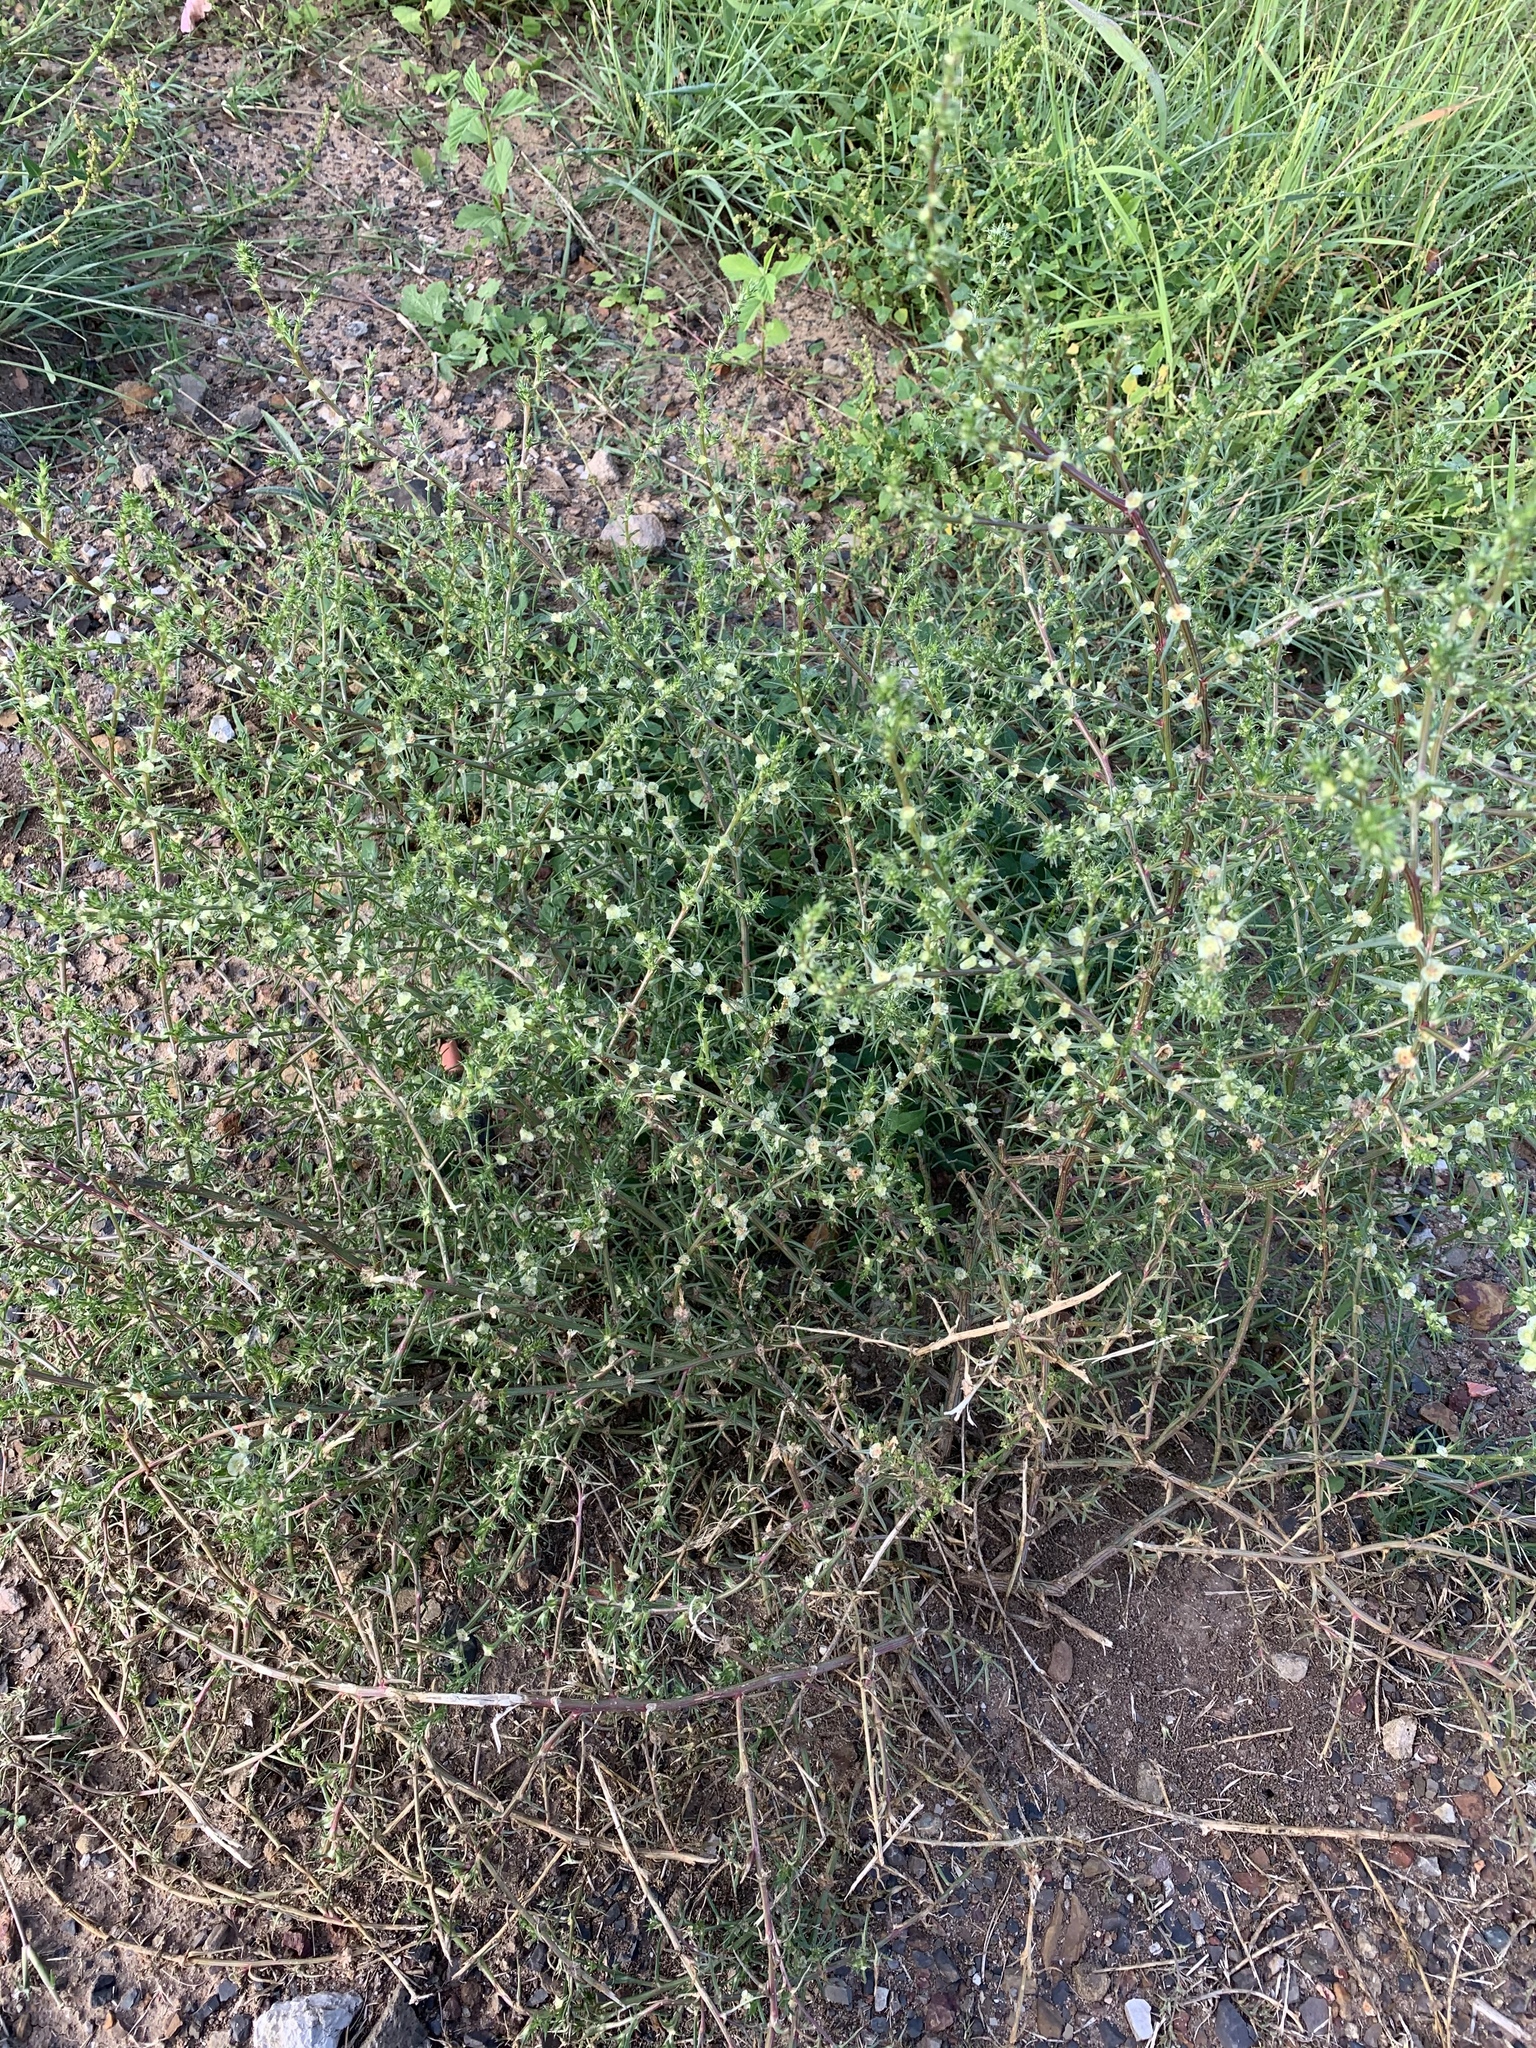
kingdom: Plantae
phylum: Tracheophyta
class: Magnoliopsida
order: Caryophyllales
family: Amaranthaceae
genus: Salsola
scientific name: Salsola australis
